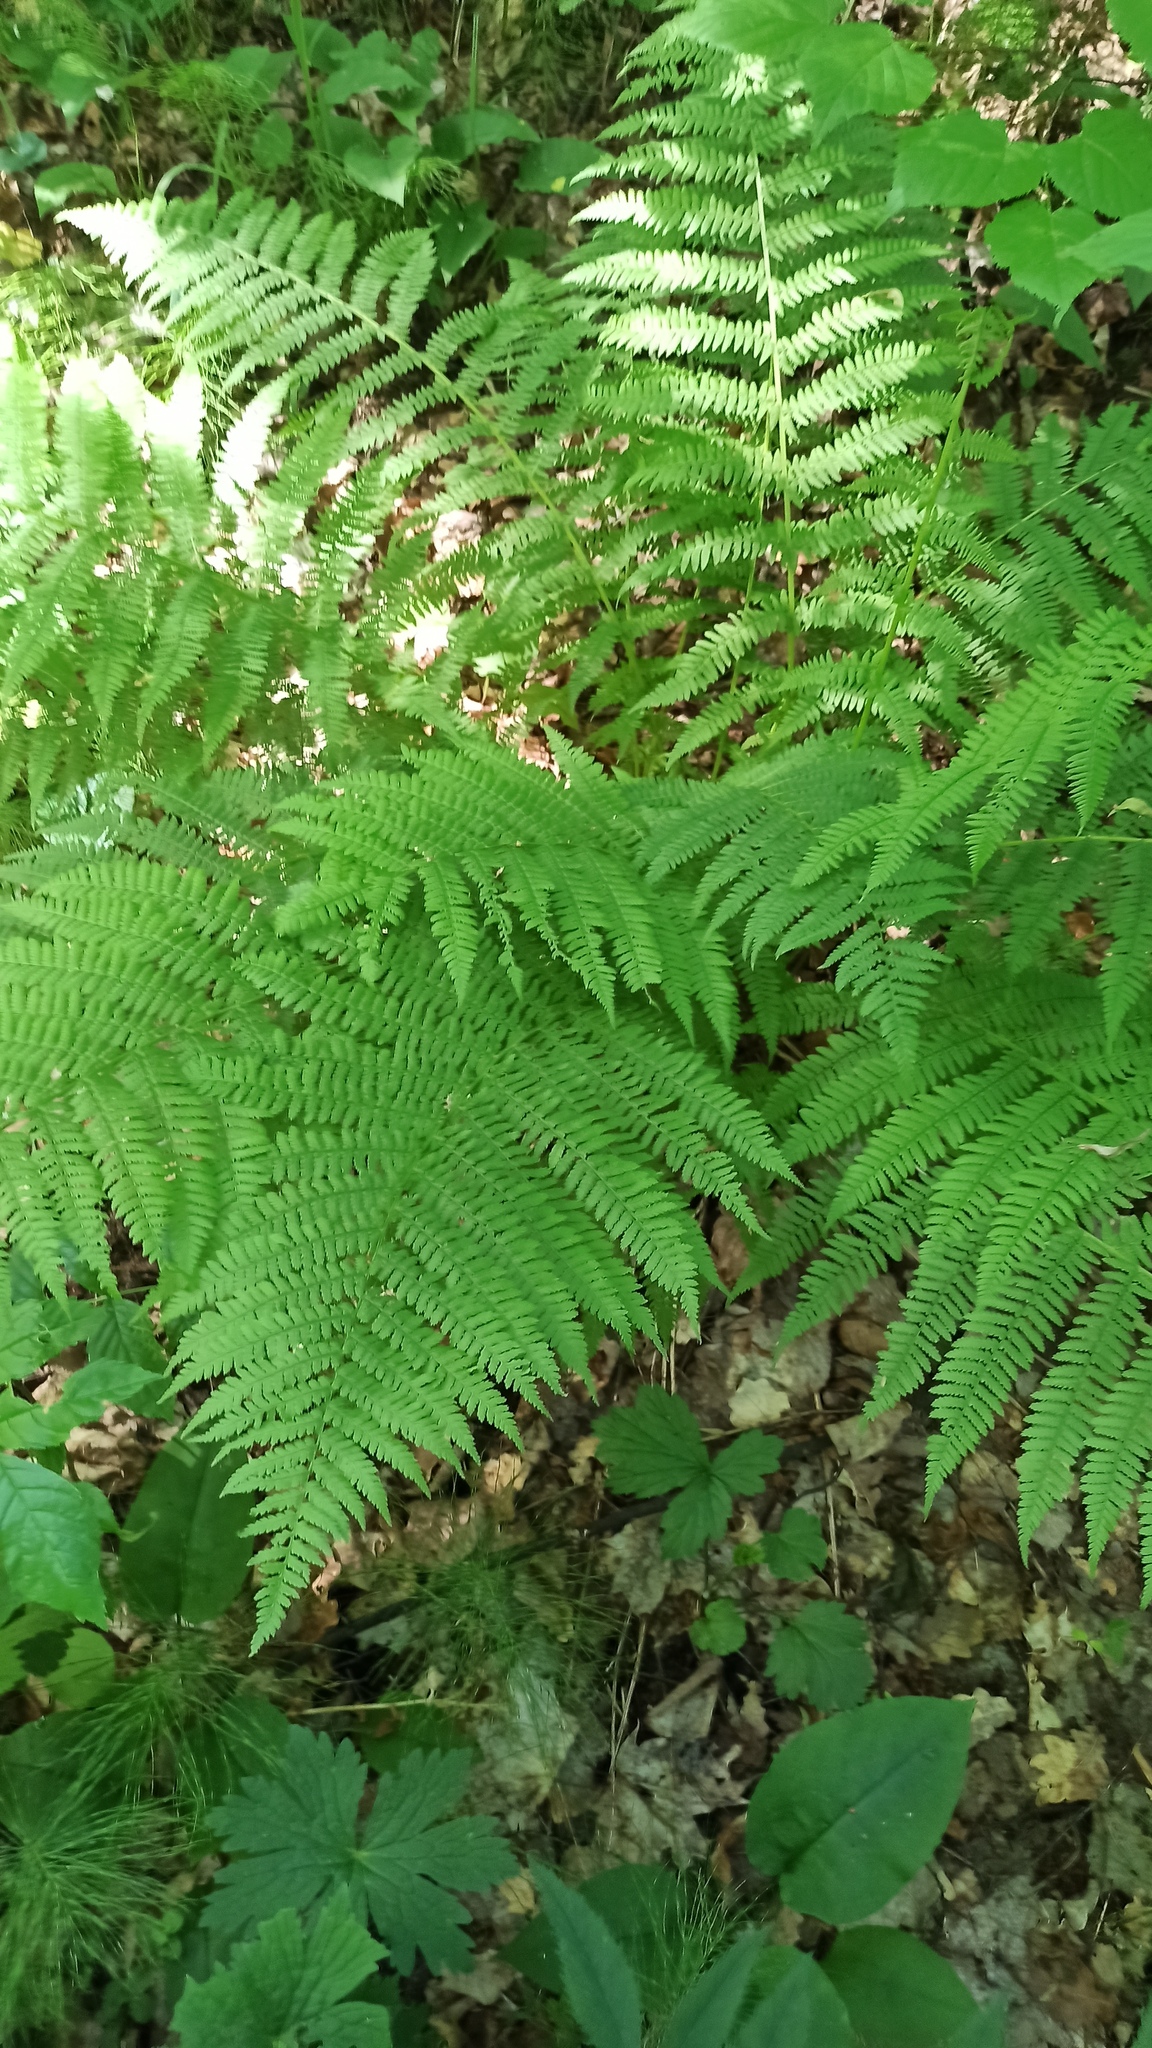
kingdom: Plantae
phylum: Tracheophyta
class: Polypodiopsida
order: Polypodiales
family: Athyriaceae
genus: Athyrium
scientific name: Athyrium filix-femina
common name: Lady fern
